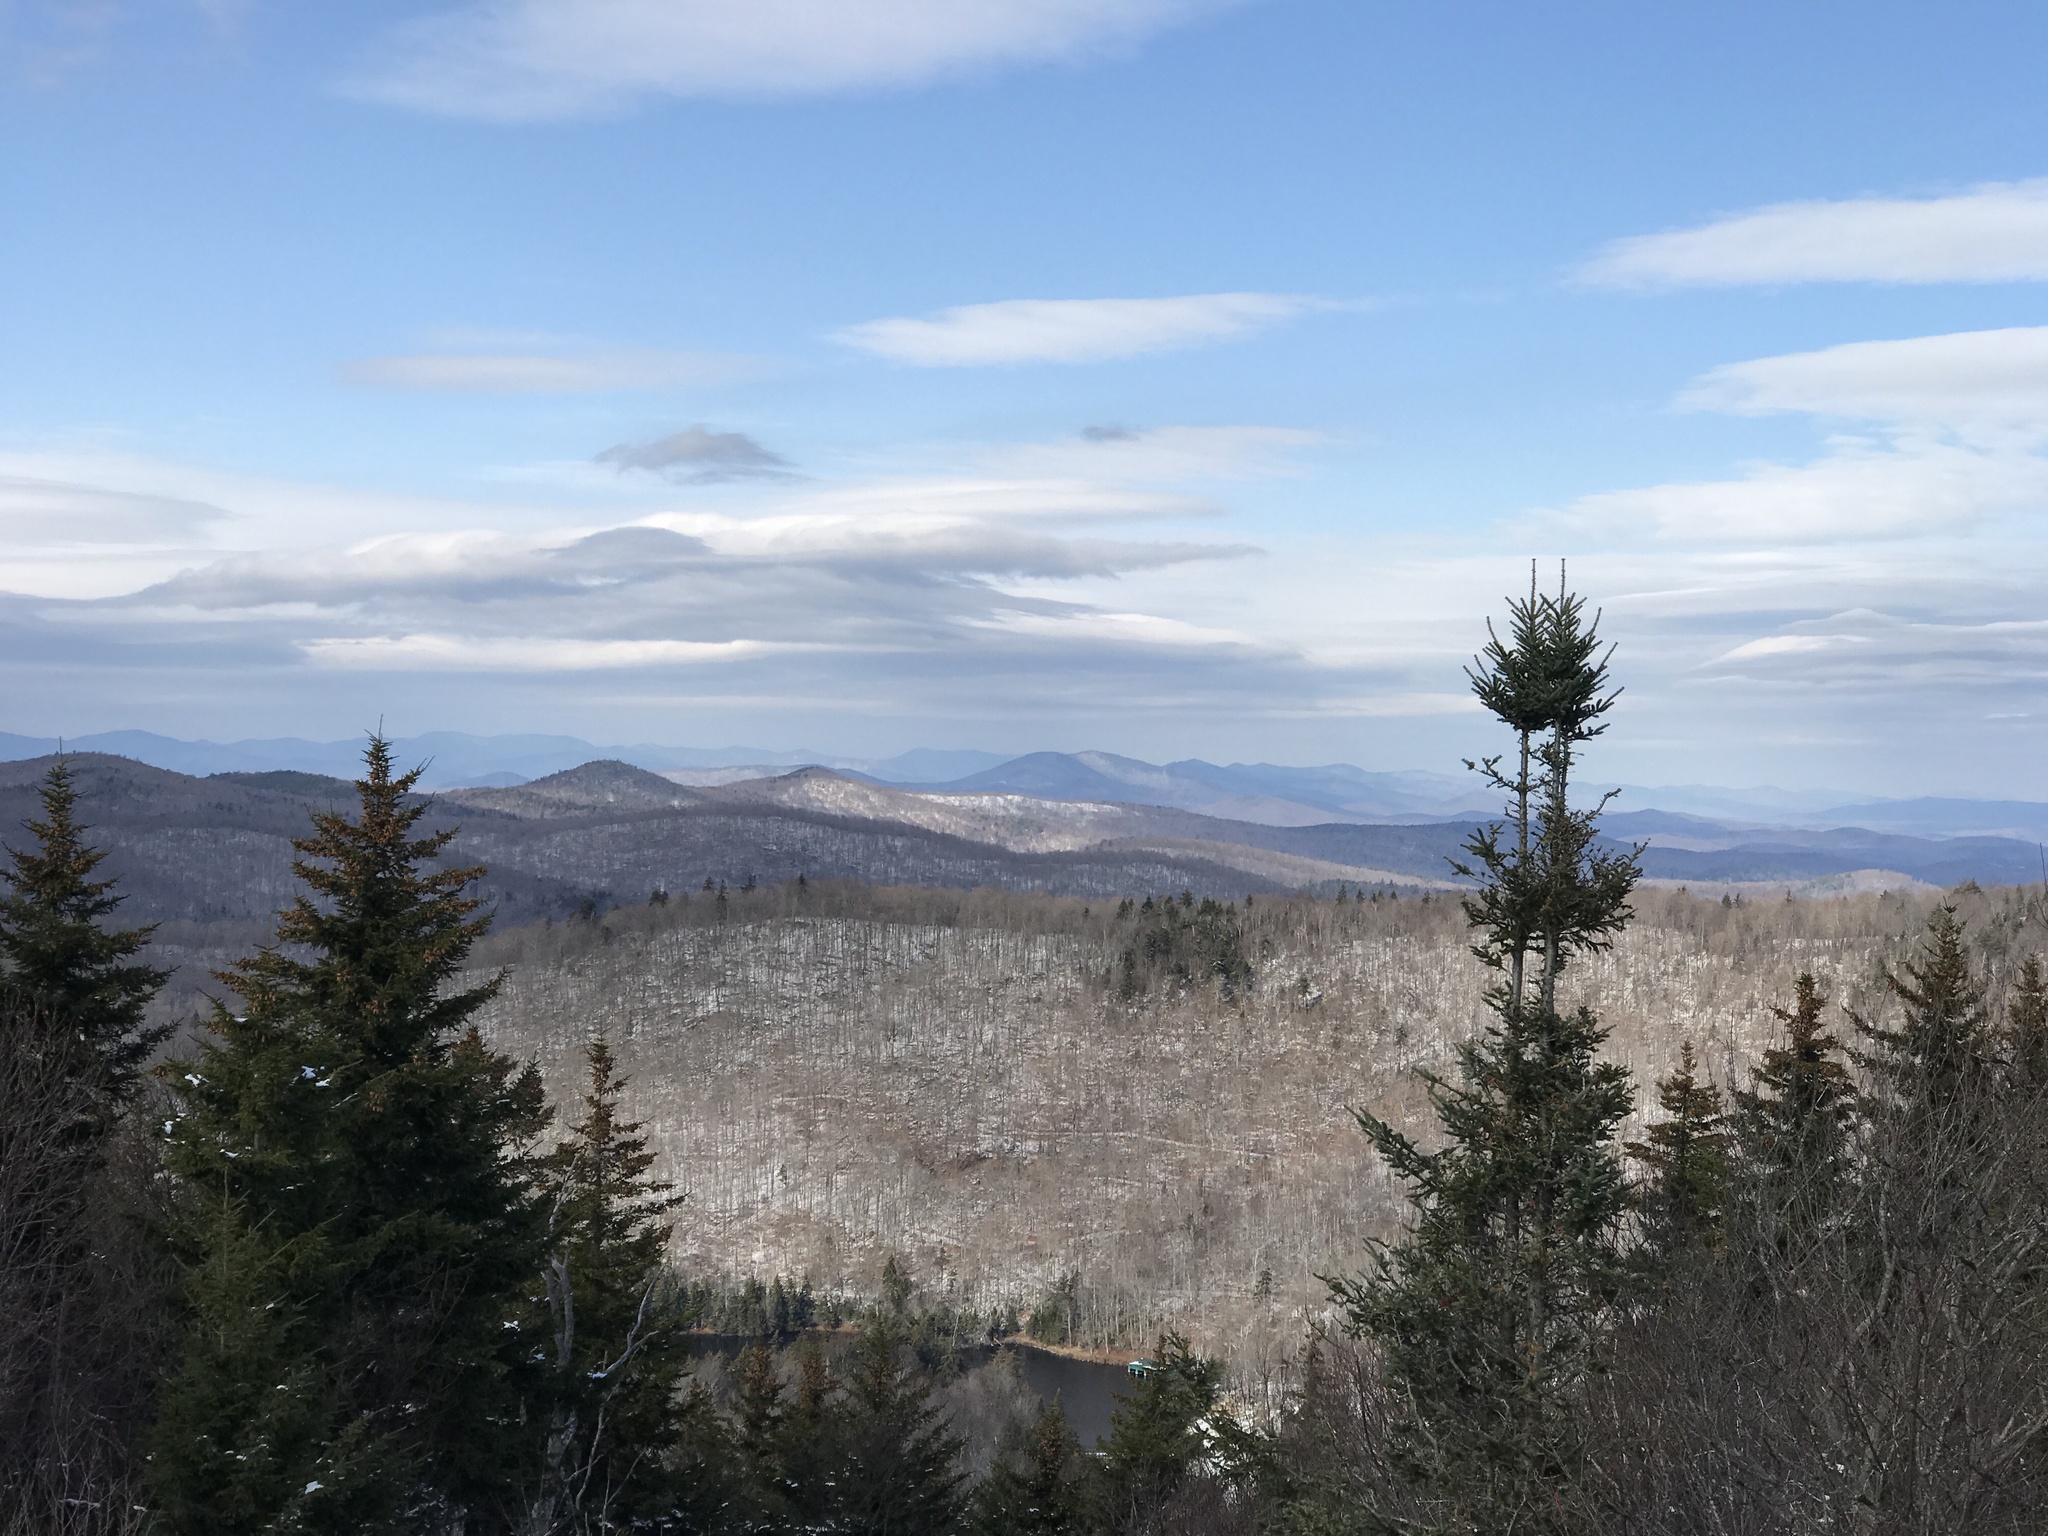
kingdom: Plantae
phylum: Tracheophyta
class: Pinopsida
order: Pinales
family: Pinaceae
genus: Picea
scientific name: Picea rubens
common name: Red spruce
